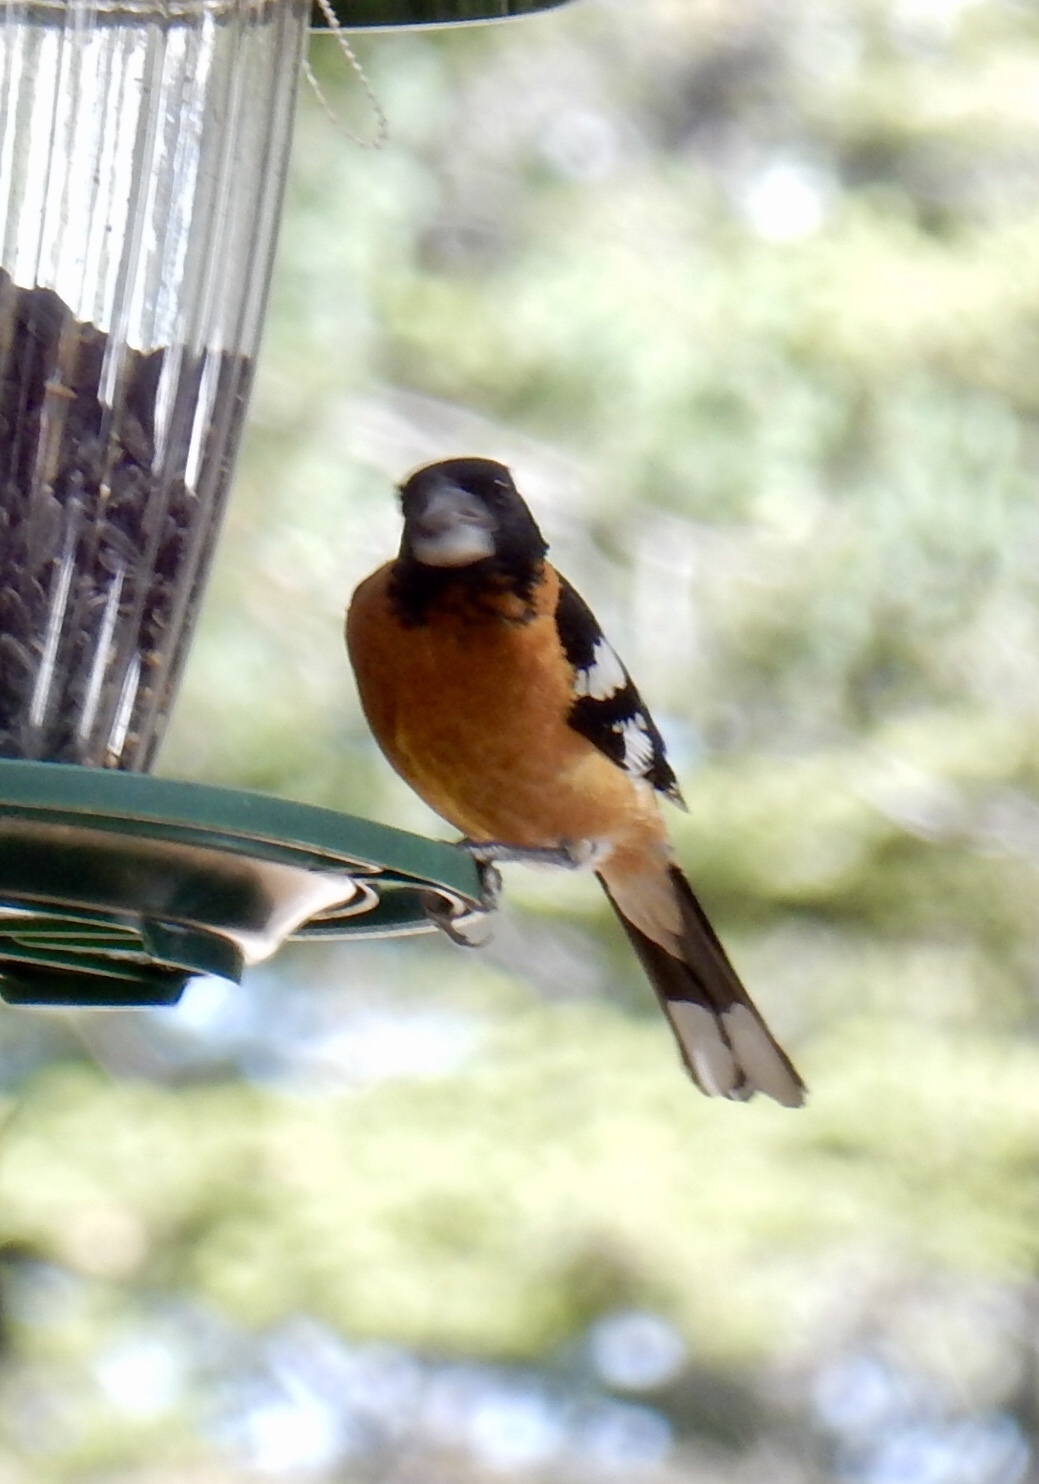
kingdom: Animalia
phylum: Chordata
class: Aves
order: Passeriformes
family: Cardinalidae
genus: Pheucticus
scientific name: Pheucticus melanocephalus
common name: Black-headed grosbeak
